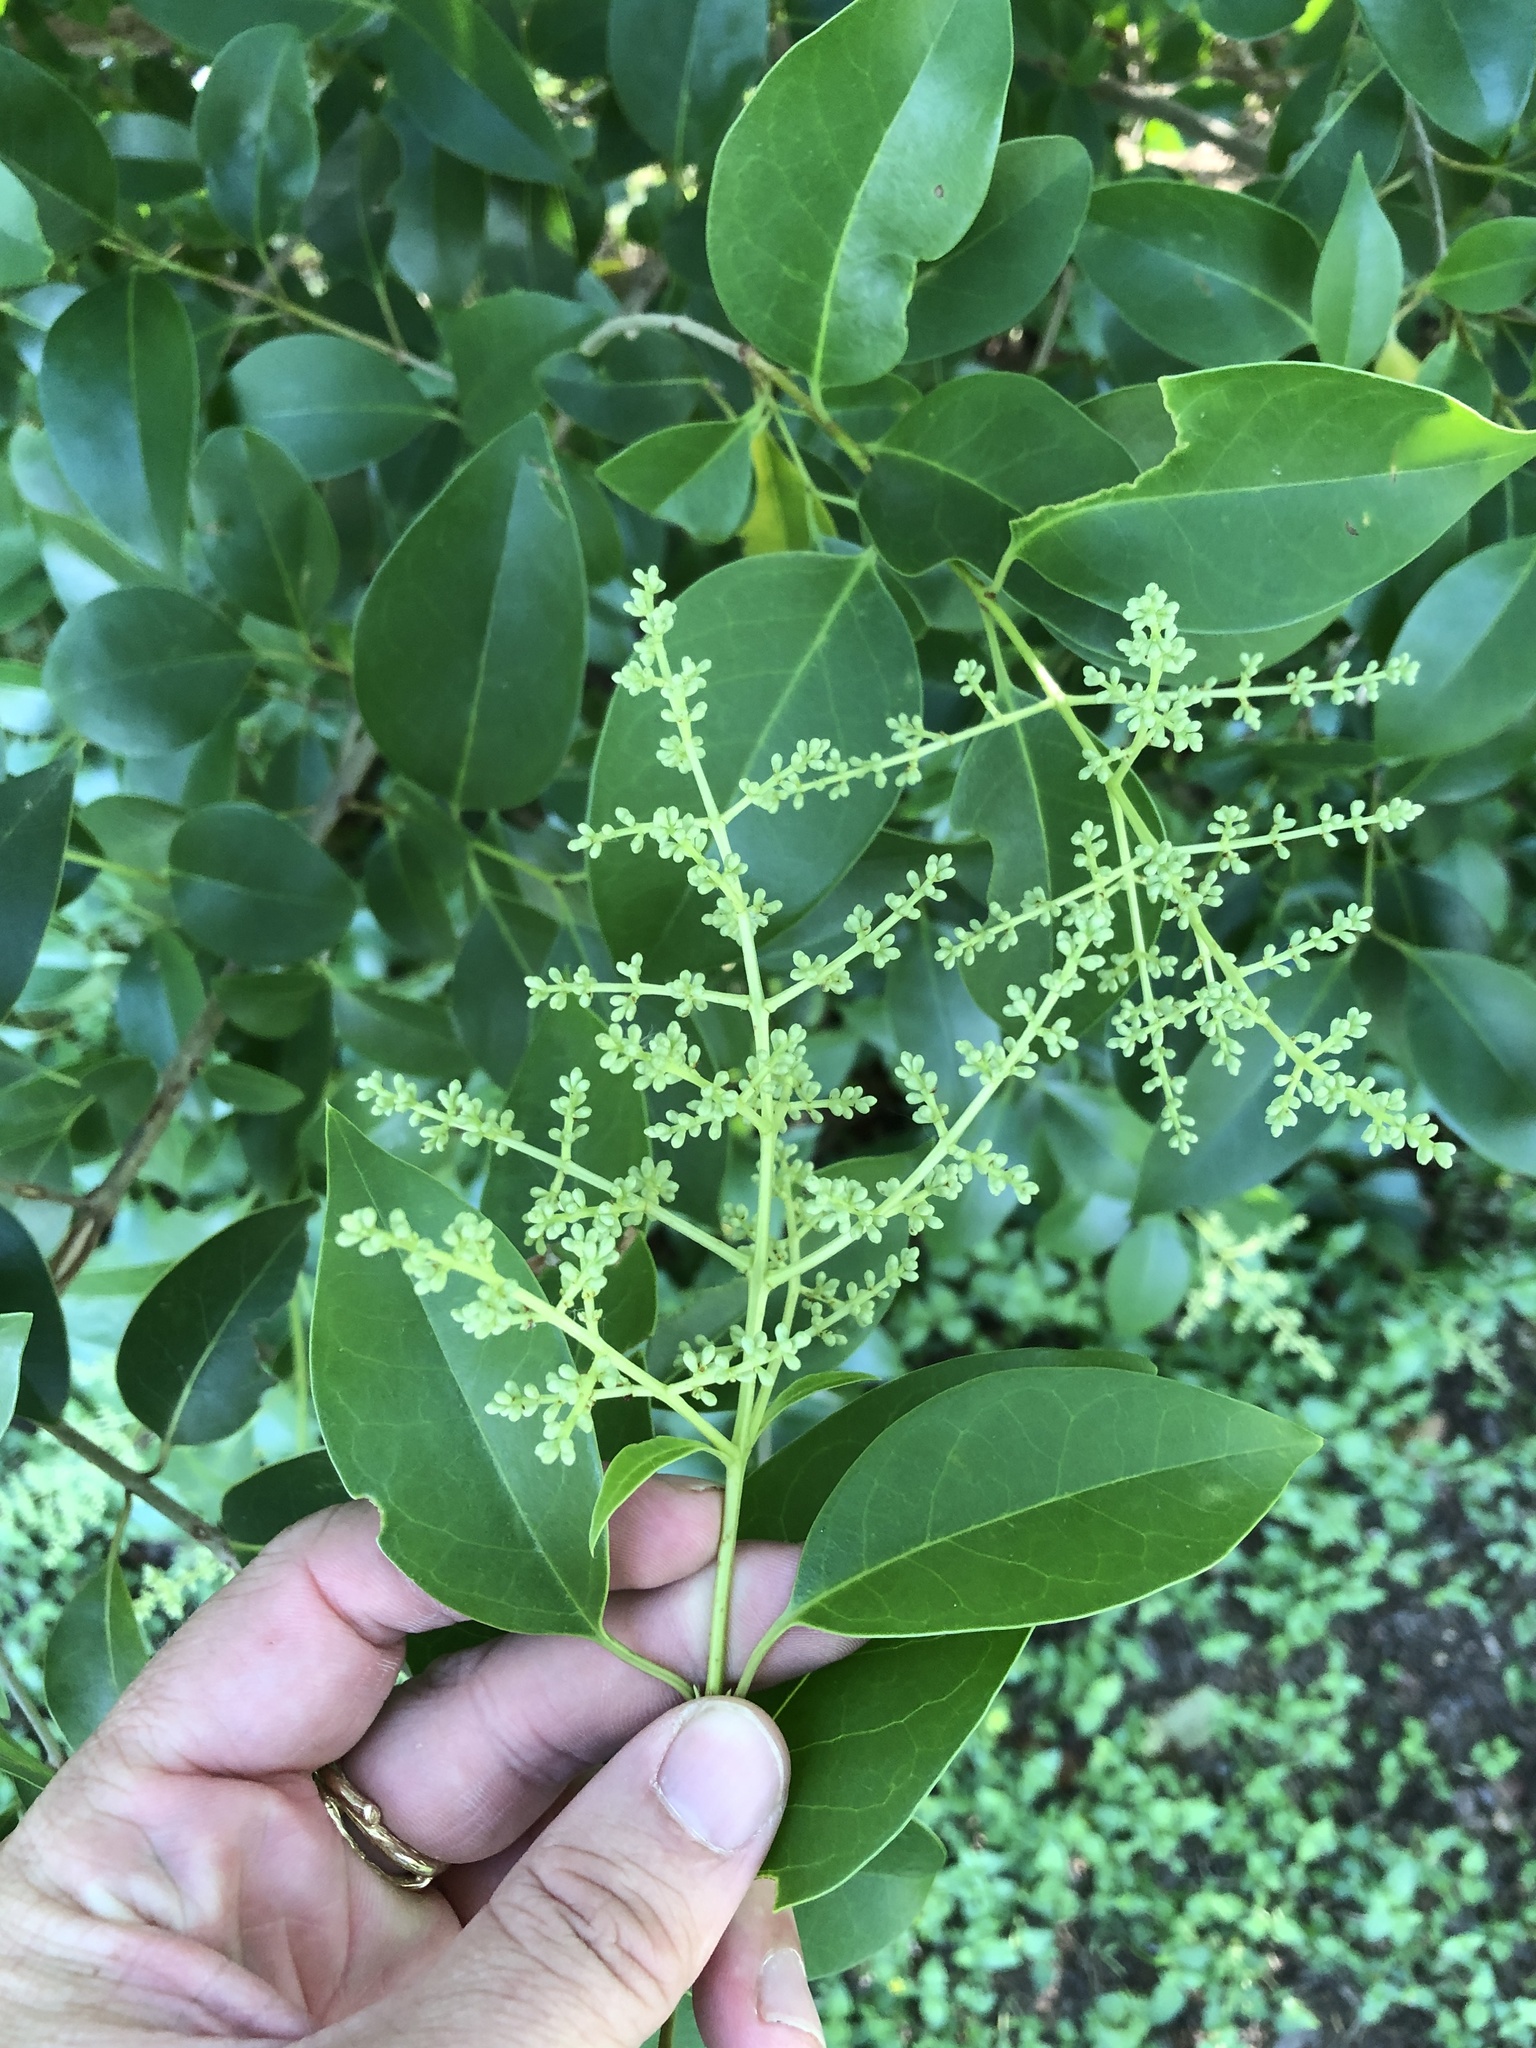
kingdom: Plantae
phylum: Tracheophyta
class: Magnoliopsida
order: Lamiales
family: Oleaceae
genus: Ligustrum
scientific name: Ligustrum lucidum
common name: Glossy privet
